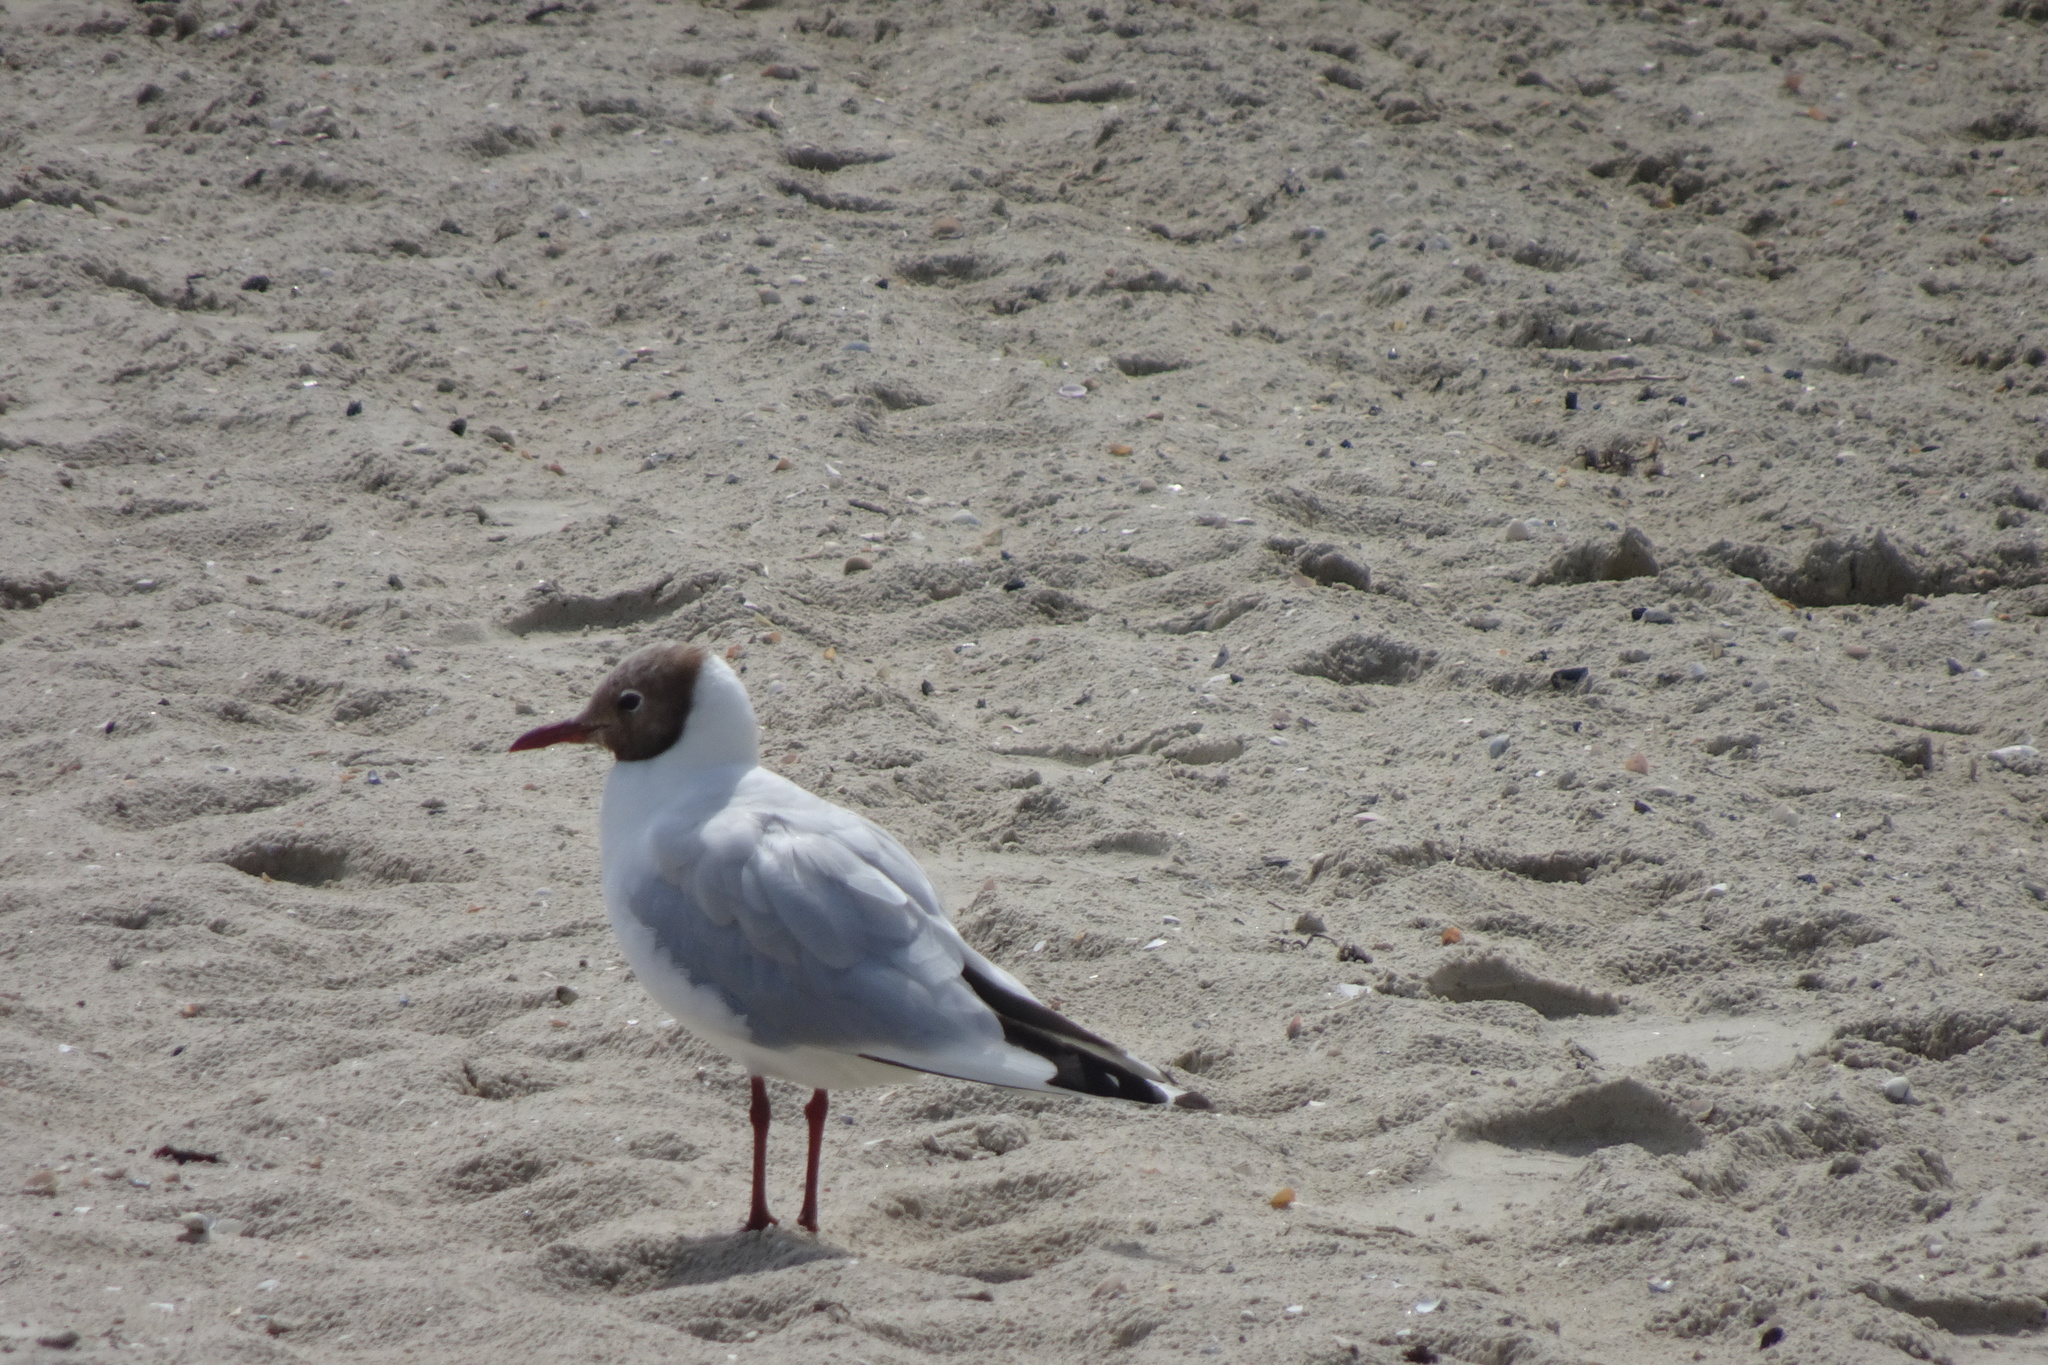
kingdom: Animalia
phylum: Chordata
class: Aves
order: Charadriiformes
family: Laridae
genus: Chroicocephalus
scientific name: Chroicocephalus ridibundus
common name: Black-headed gull
